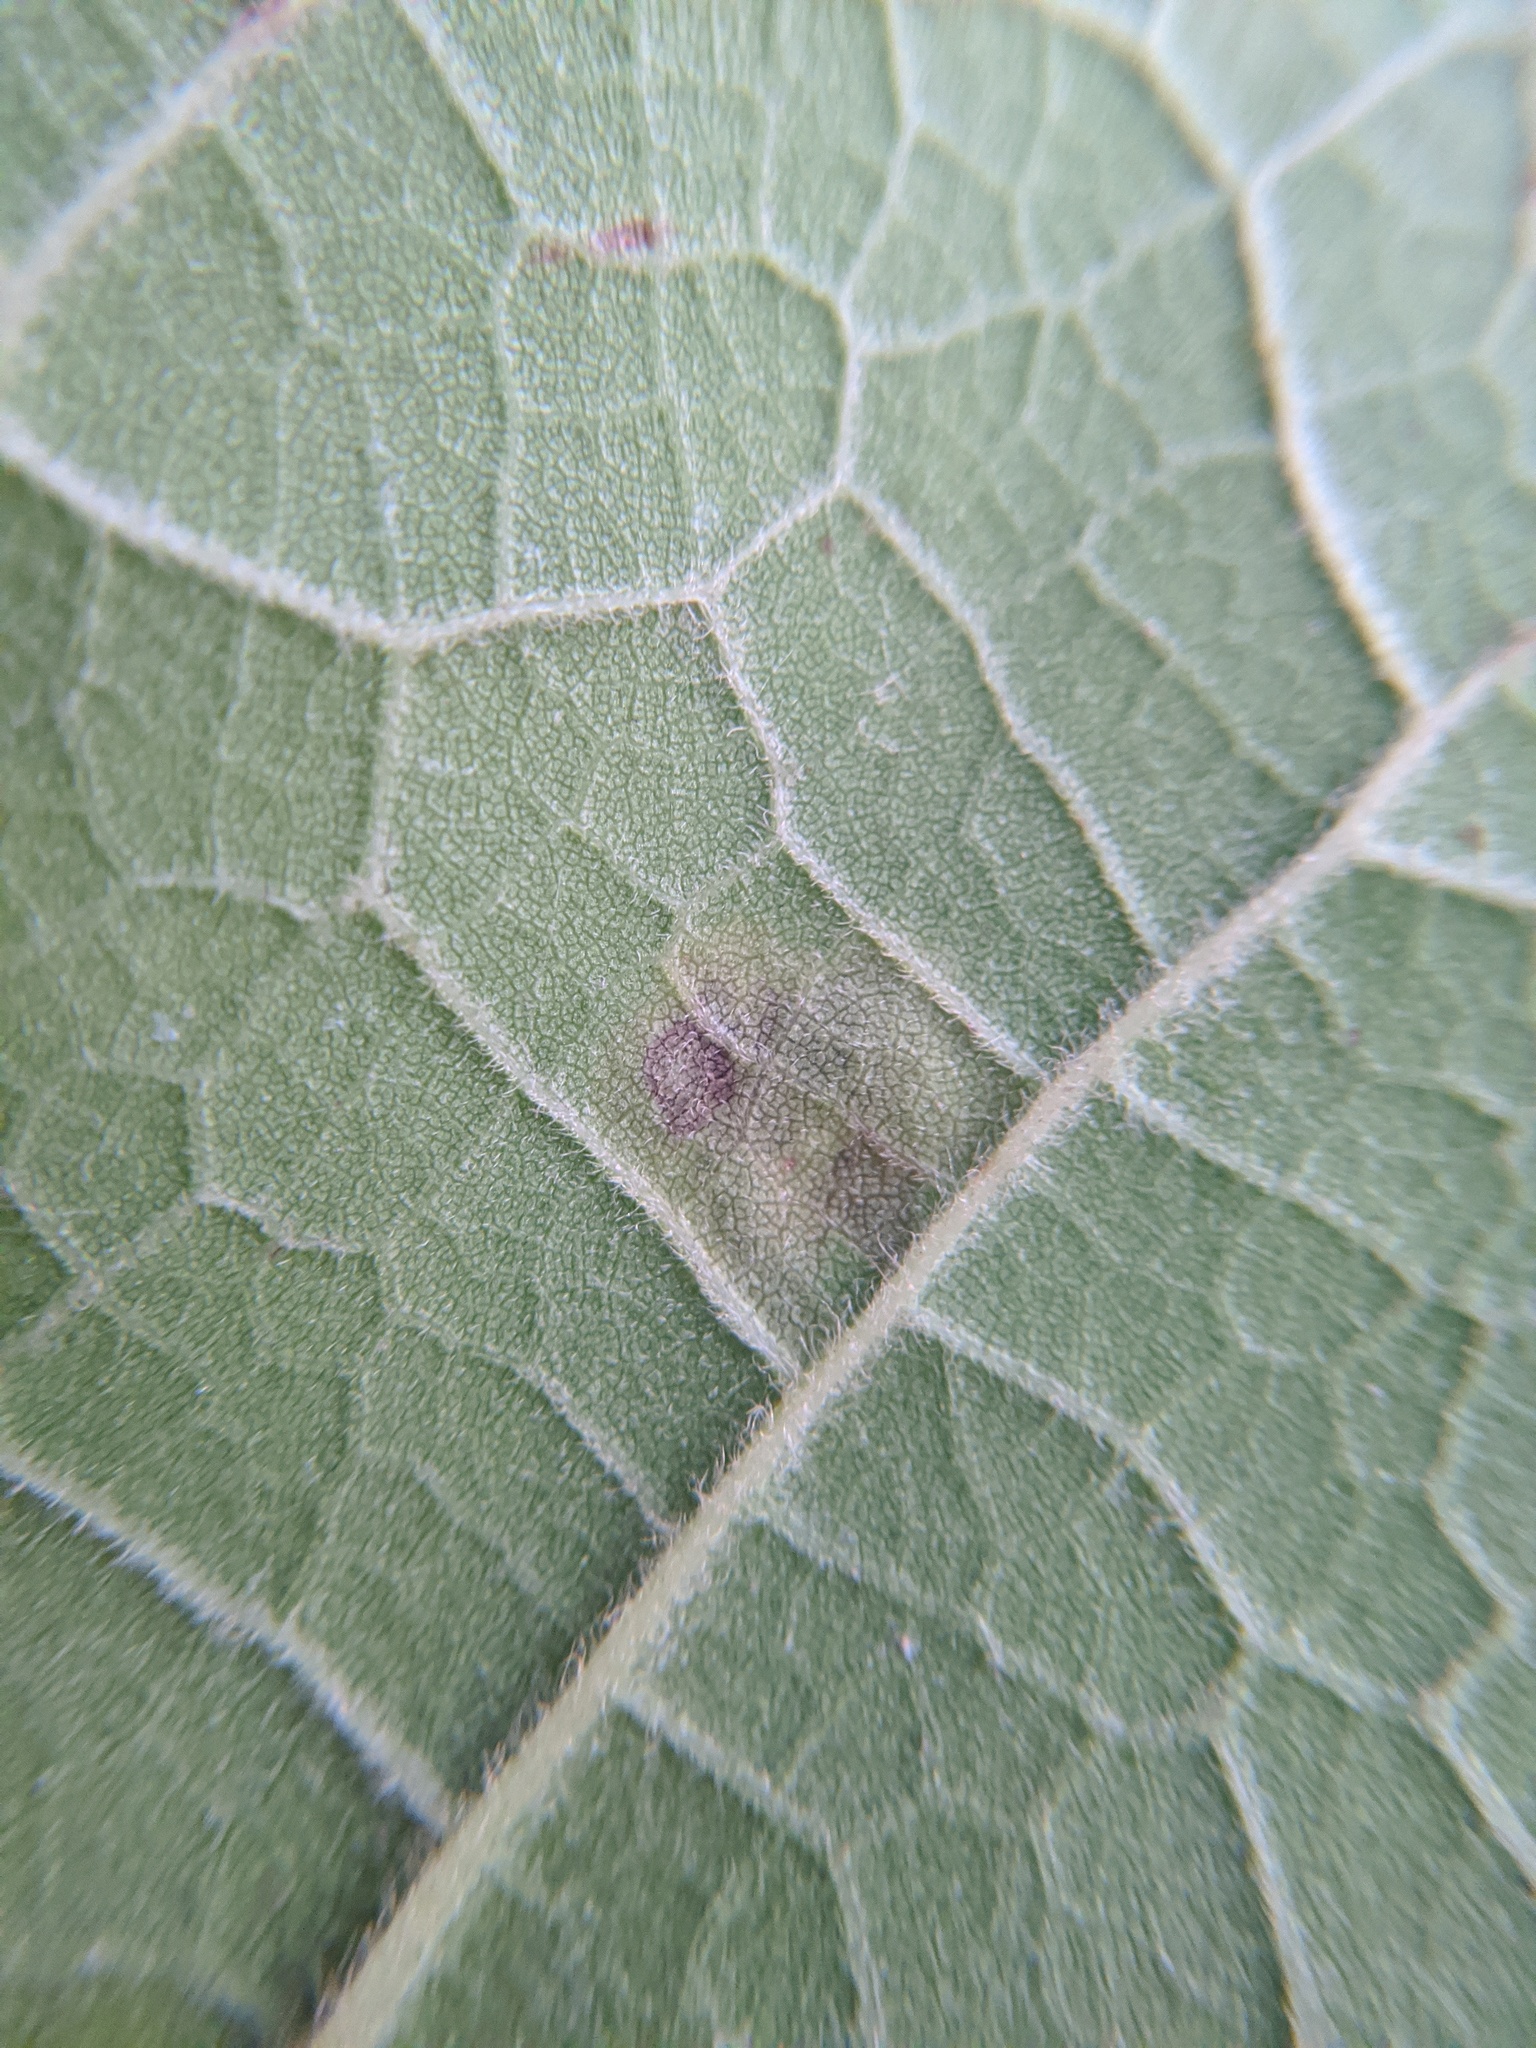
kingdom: Animalia
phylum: Arthropoda
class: Insecta
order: Diptera
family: Agromyzidae
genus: Amauromyza
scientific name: Amauromyza pleuralis
